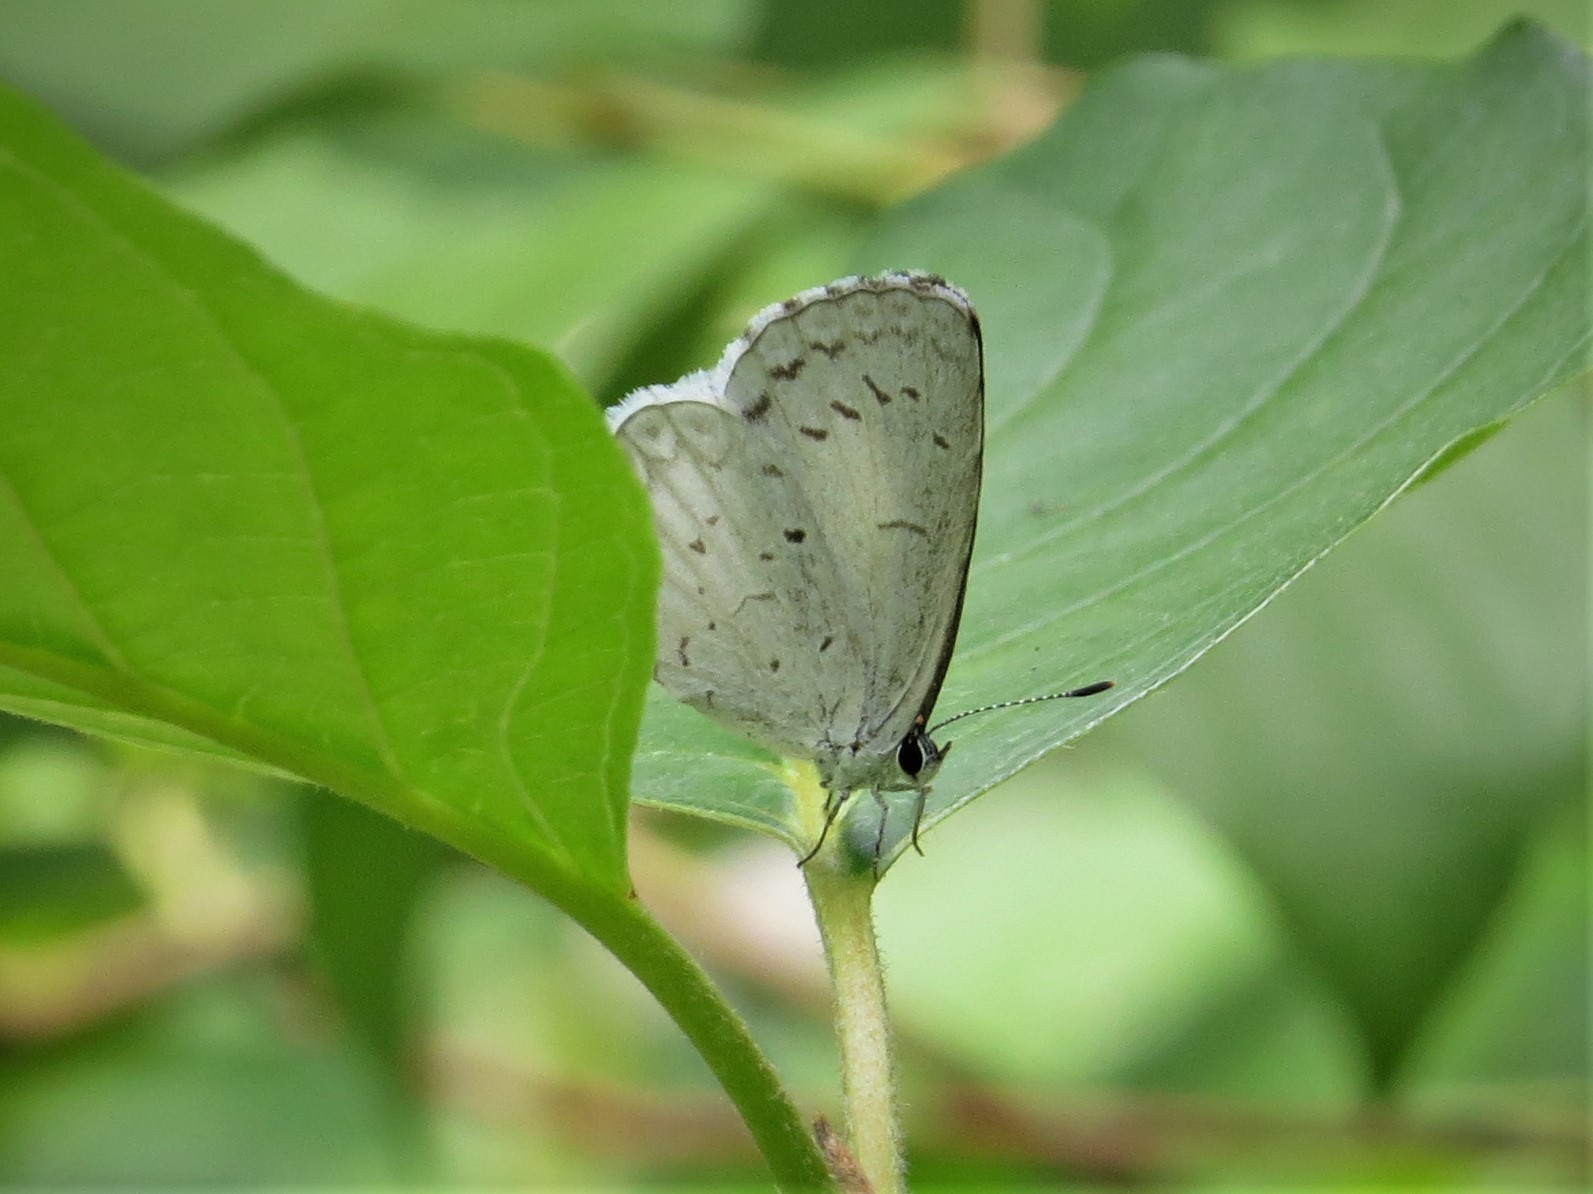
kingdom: Animalia
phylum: Arthropoda
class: Insecta
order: Lepidoptera
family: Lycaenidae
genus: Cyaniris
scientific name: Cyaniris neglecta
